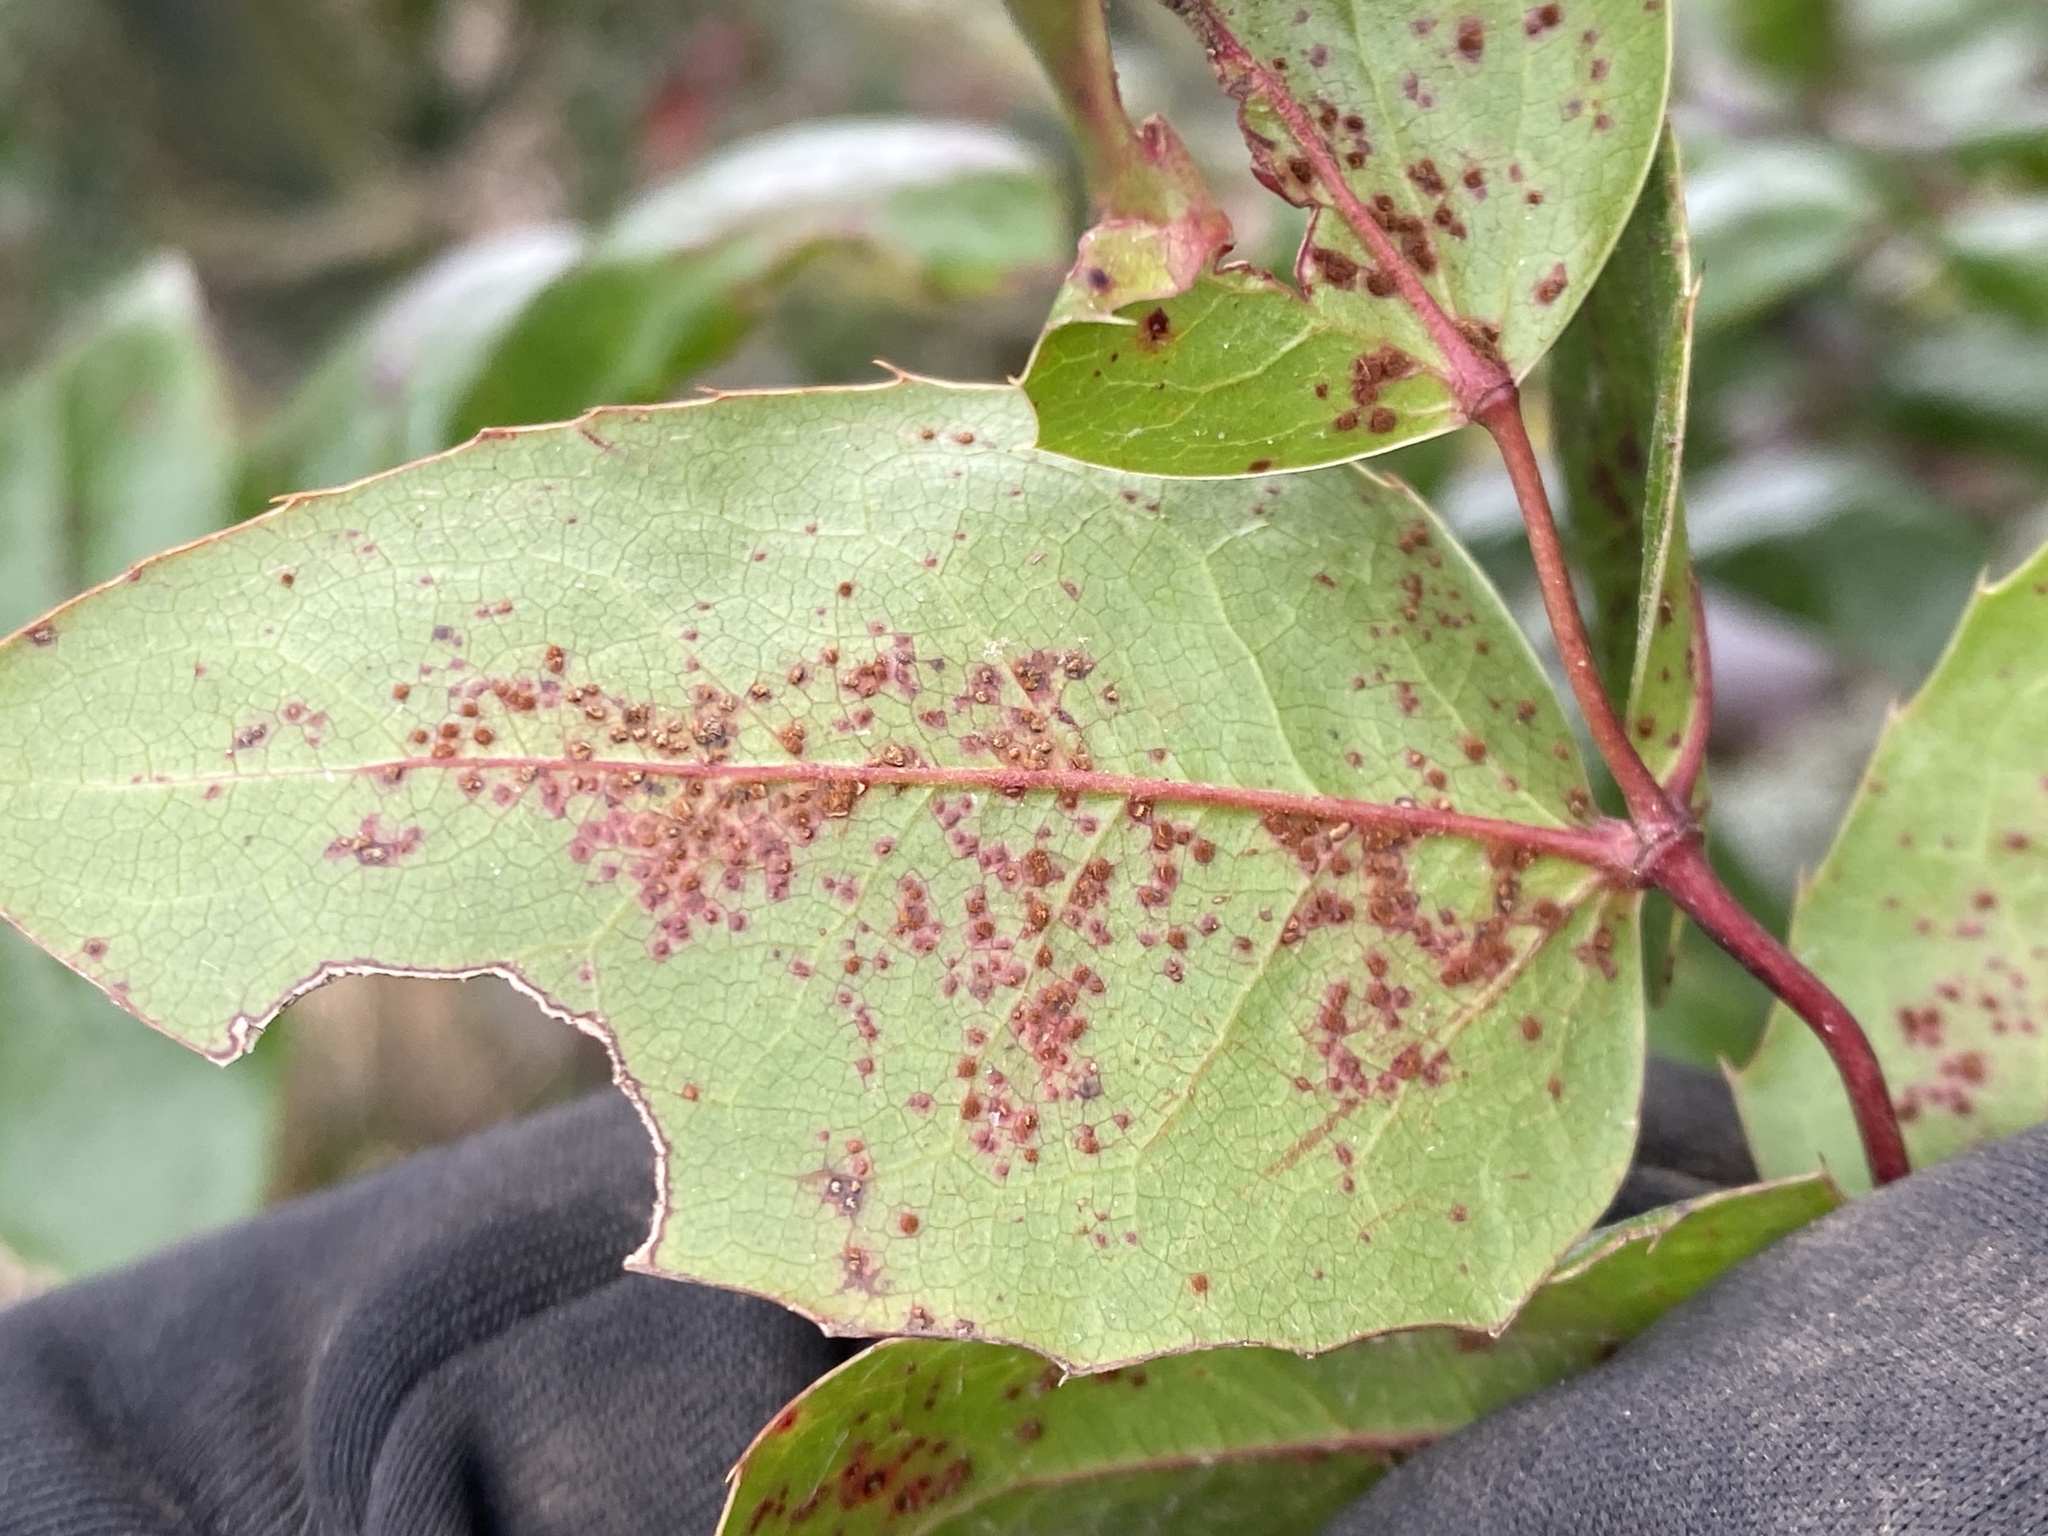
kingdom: Fungi
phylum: Basidiomycota
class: Pucciniomycetes
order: Pucciniales
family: Pucciniaceae
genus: Cumminsiella
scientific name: Cumminsiella mirabilissima
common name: Mahonia rust
